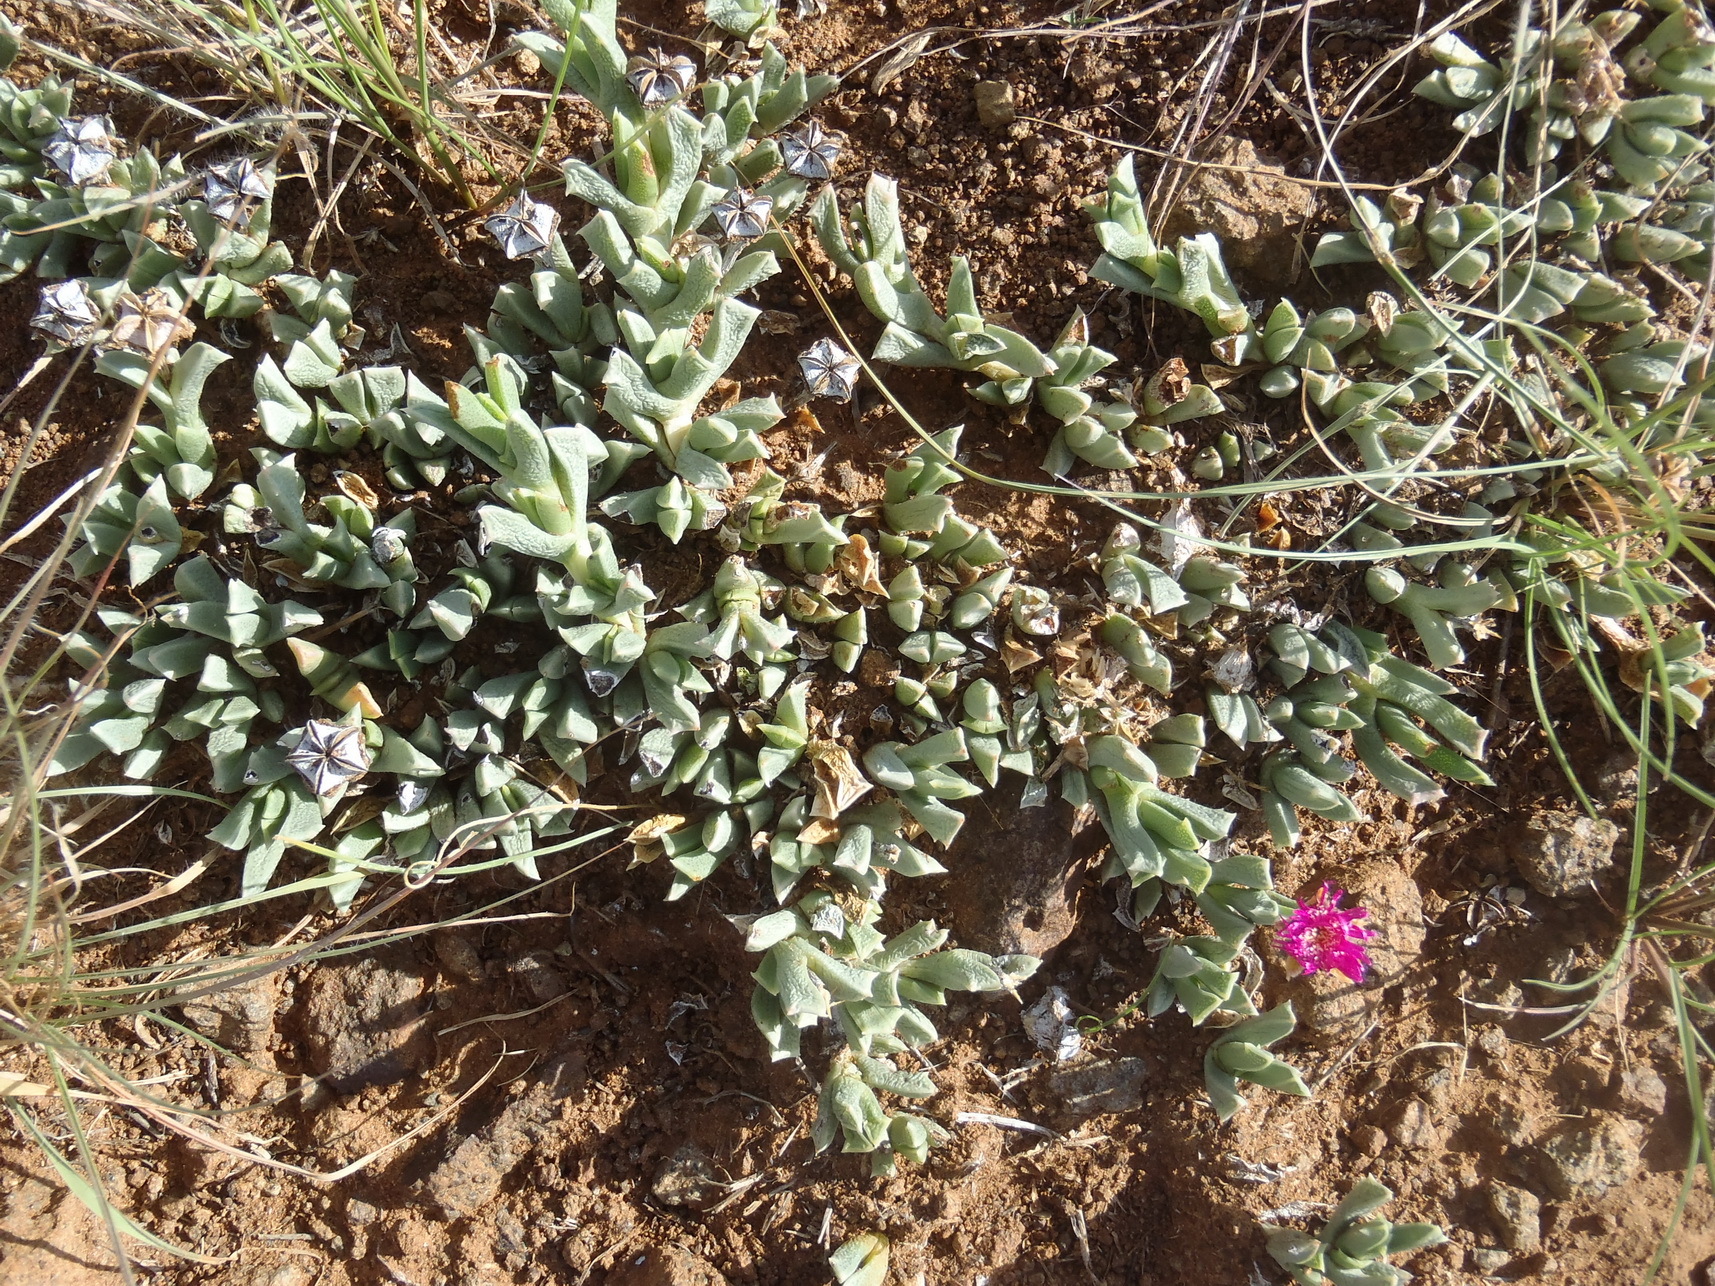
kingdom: Plantae
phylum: Tracheophyta
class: Magnoliopsida
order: Caryophyllales
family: Aizoaceae
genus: Ruschia
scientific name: Ruschia pulvinaris
